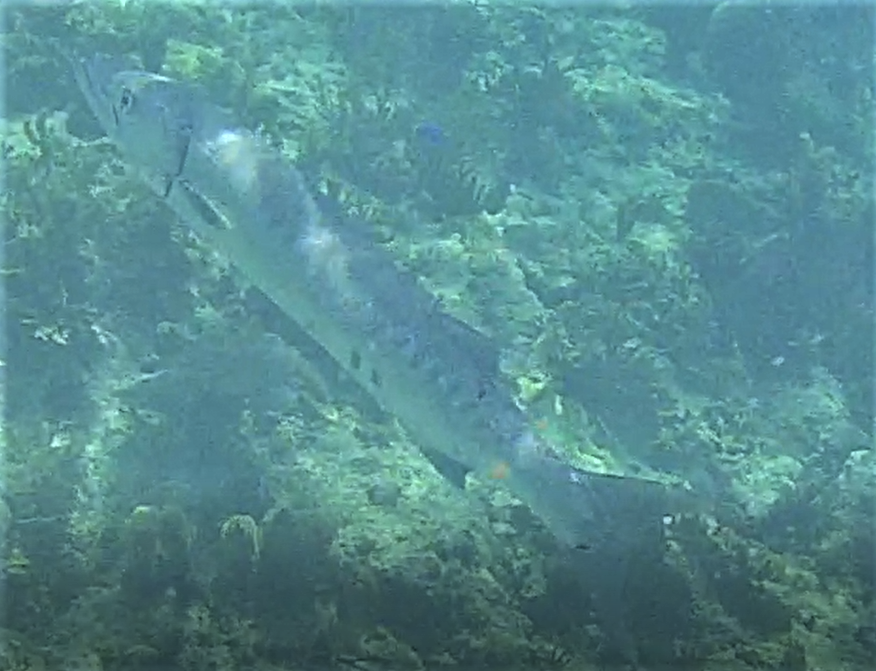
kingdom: Animalia
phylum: Chordata
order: Perciformes
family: Sphyraenidae
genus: Sphyraena
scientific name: Sphyraena barracuda
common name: Great barracuda
